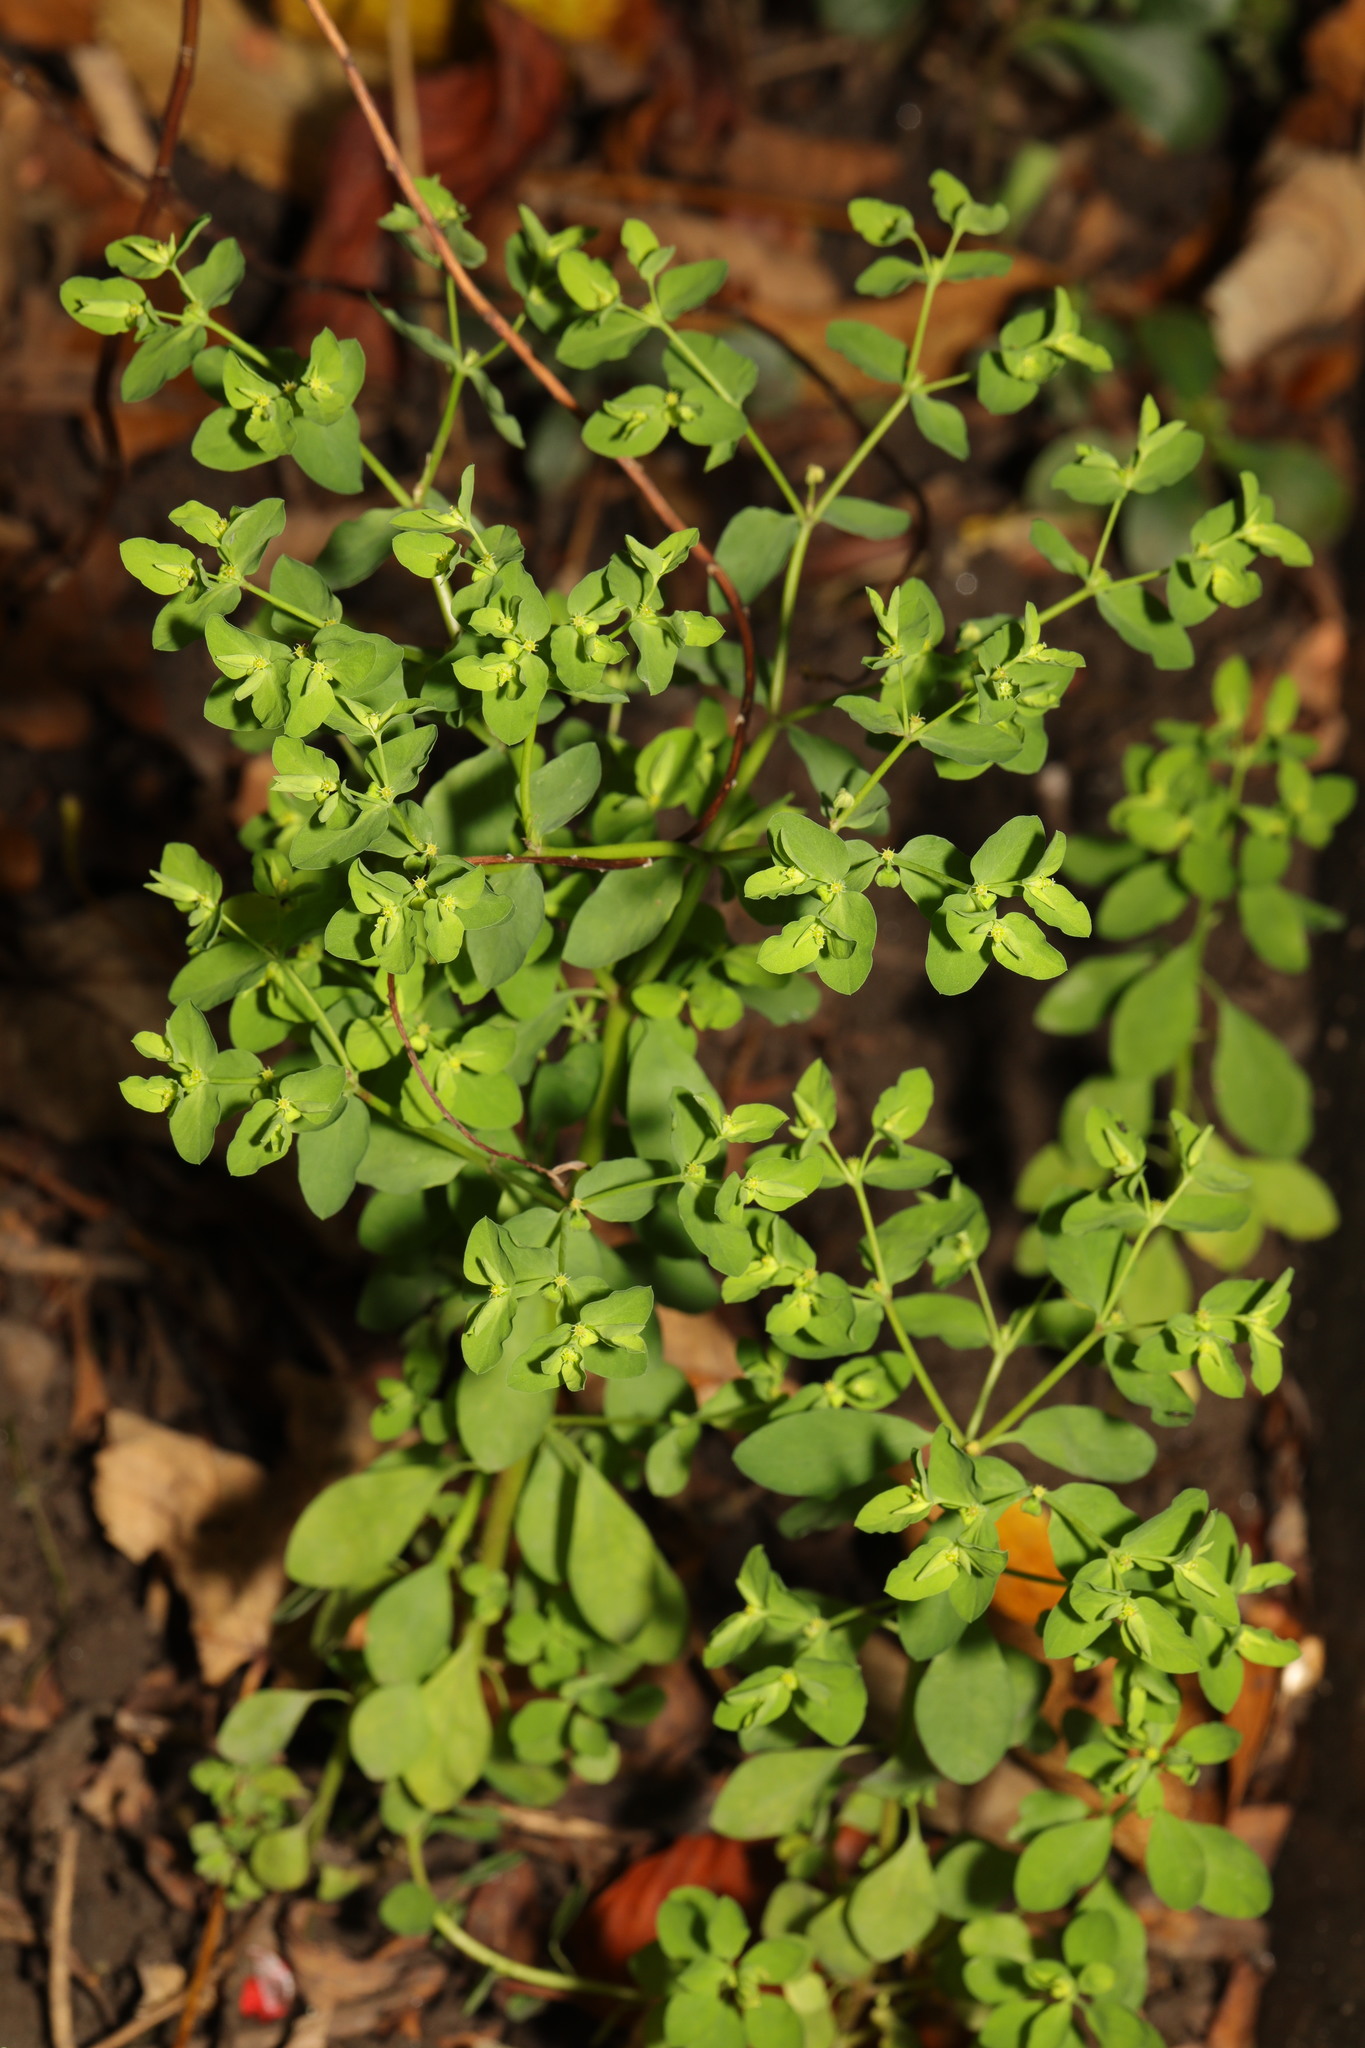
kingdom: Plantae
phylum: Tracheophyta
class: Magnoliopsida
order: Malpighiales
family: Euphorbiaceae
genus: Euphorbia
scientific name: Euphorbia peplus
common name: Petty spurge
